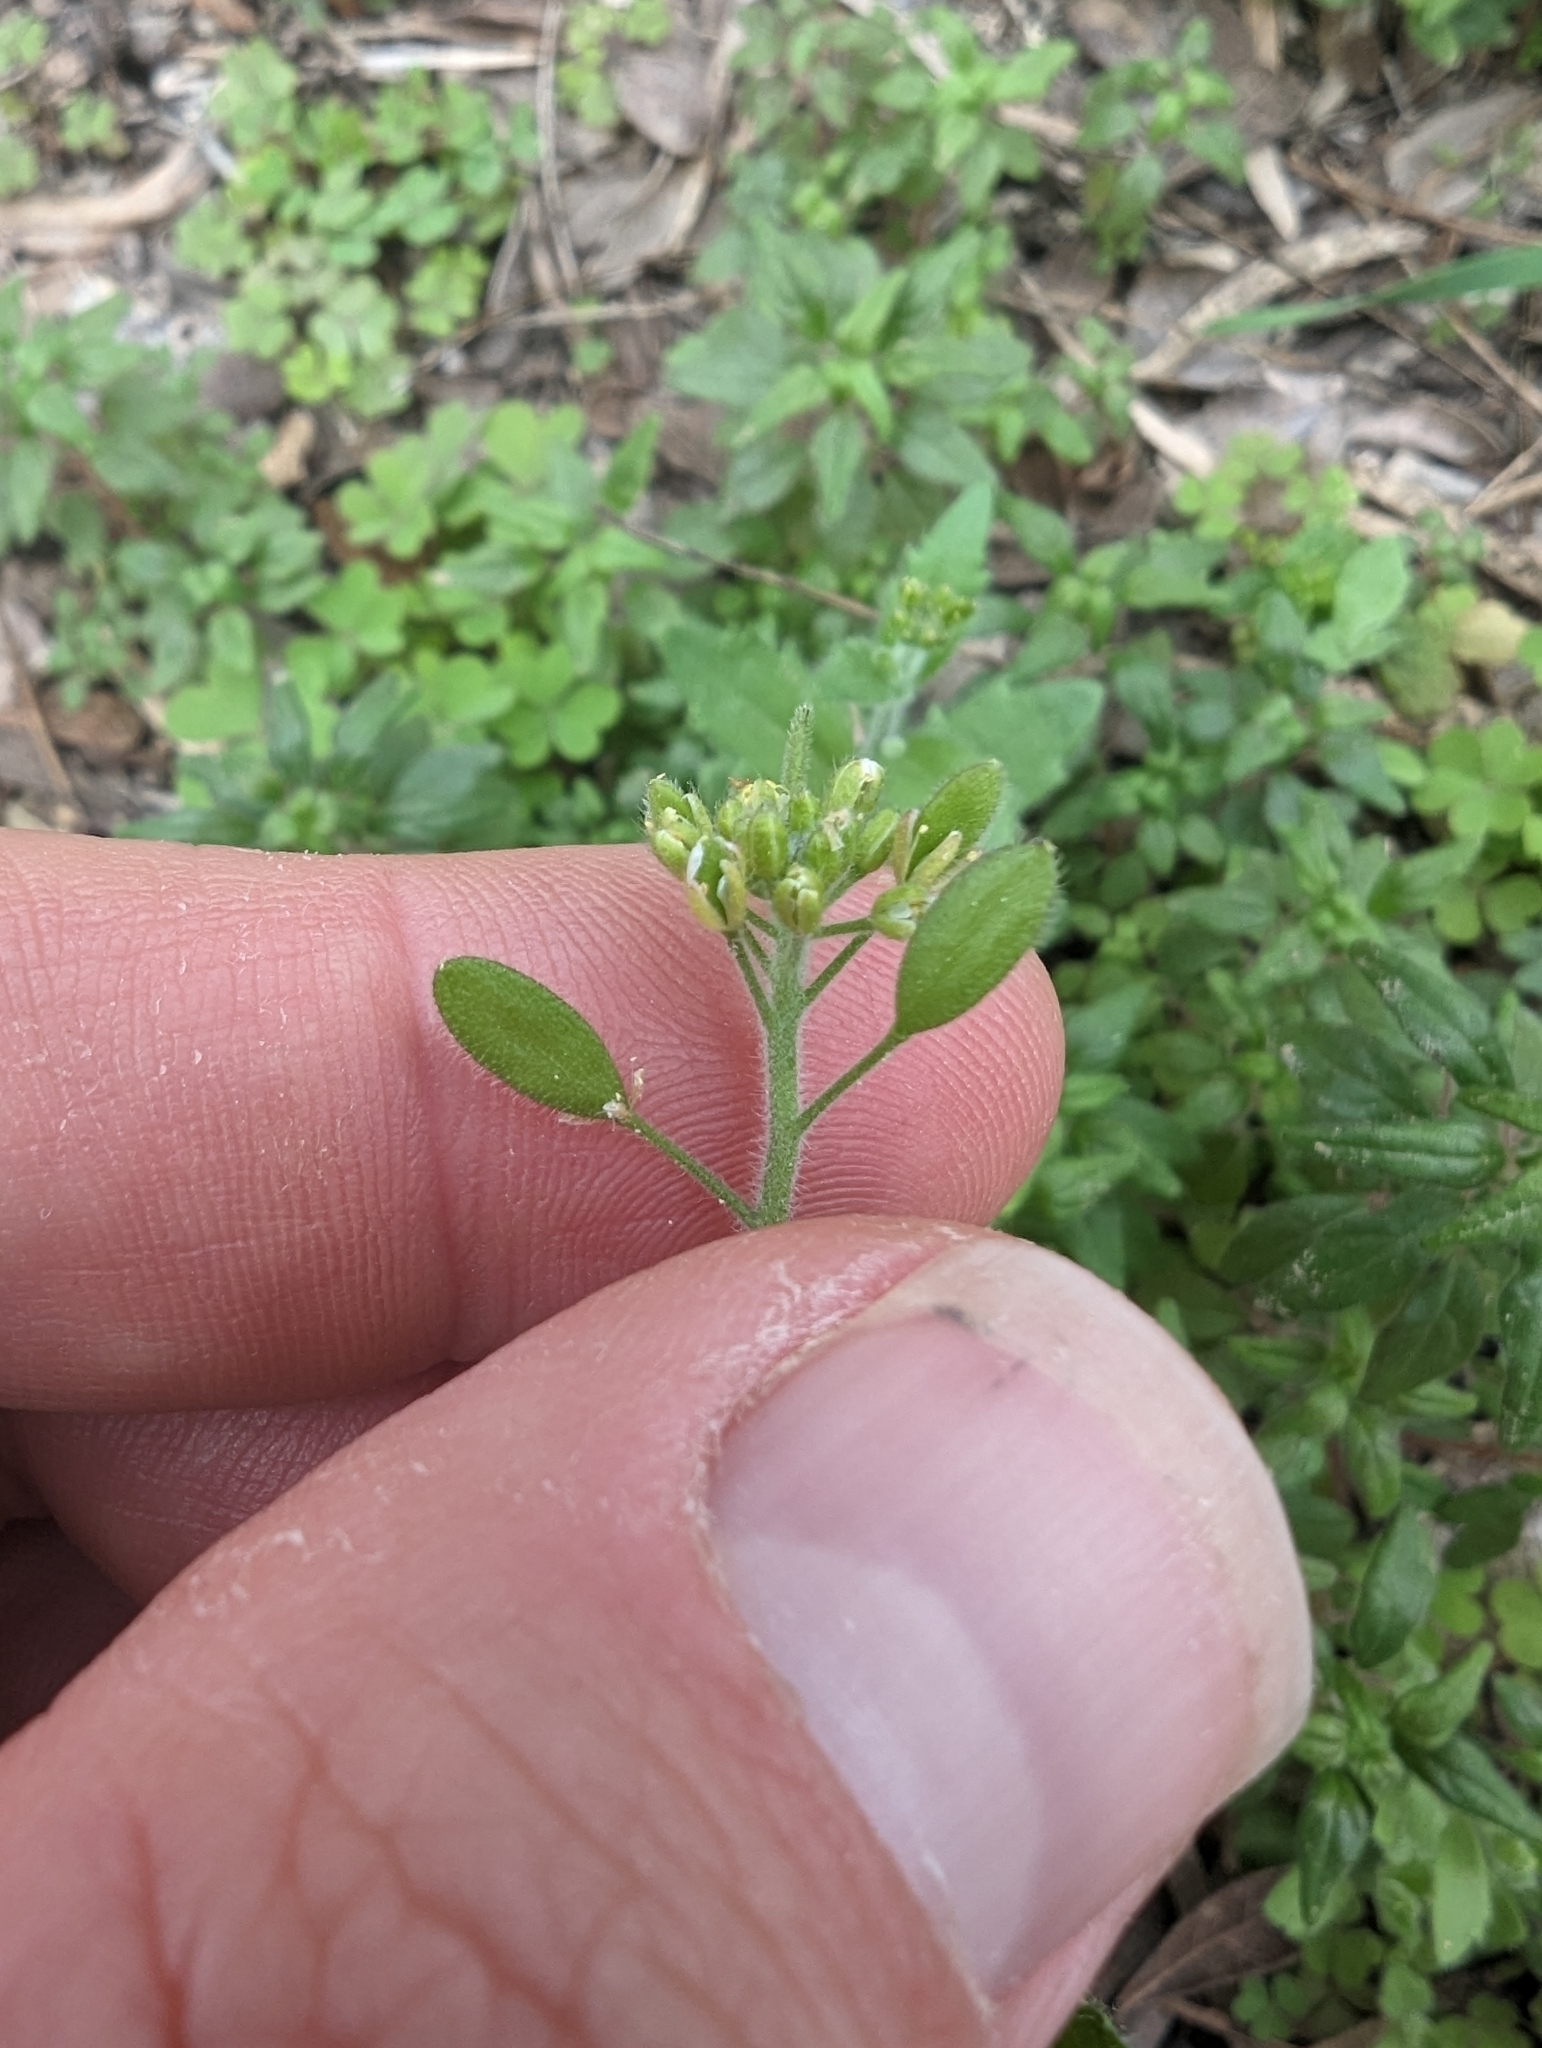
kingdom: Plantae
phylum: Tracheophyta
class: Magnoliopsida
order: Brassicales
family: Brassicaceae
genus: Tomostima
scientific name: Tomostima platycarpa
